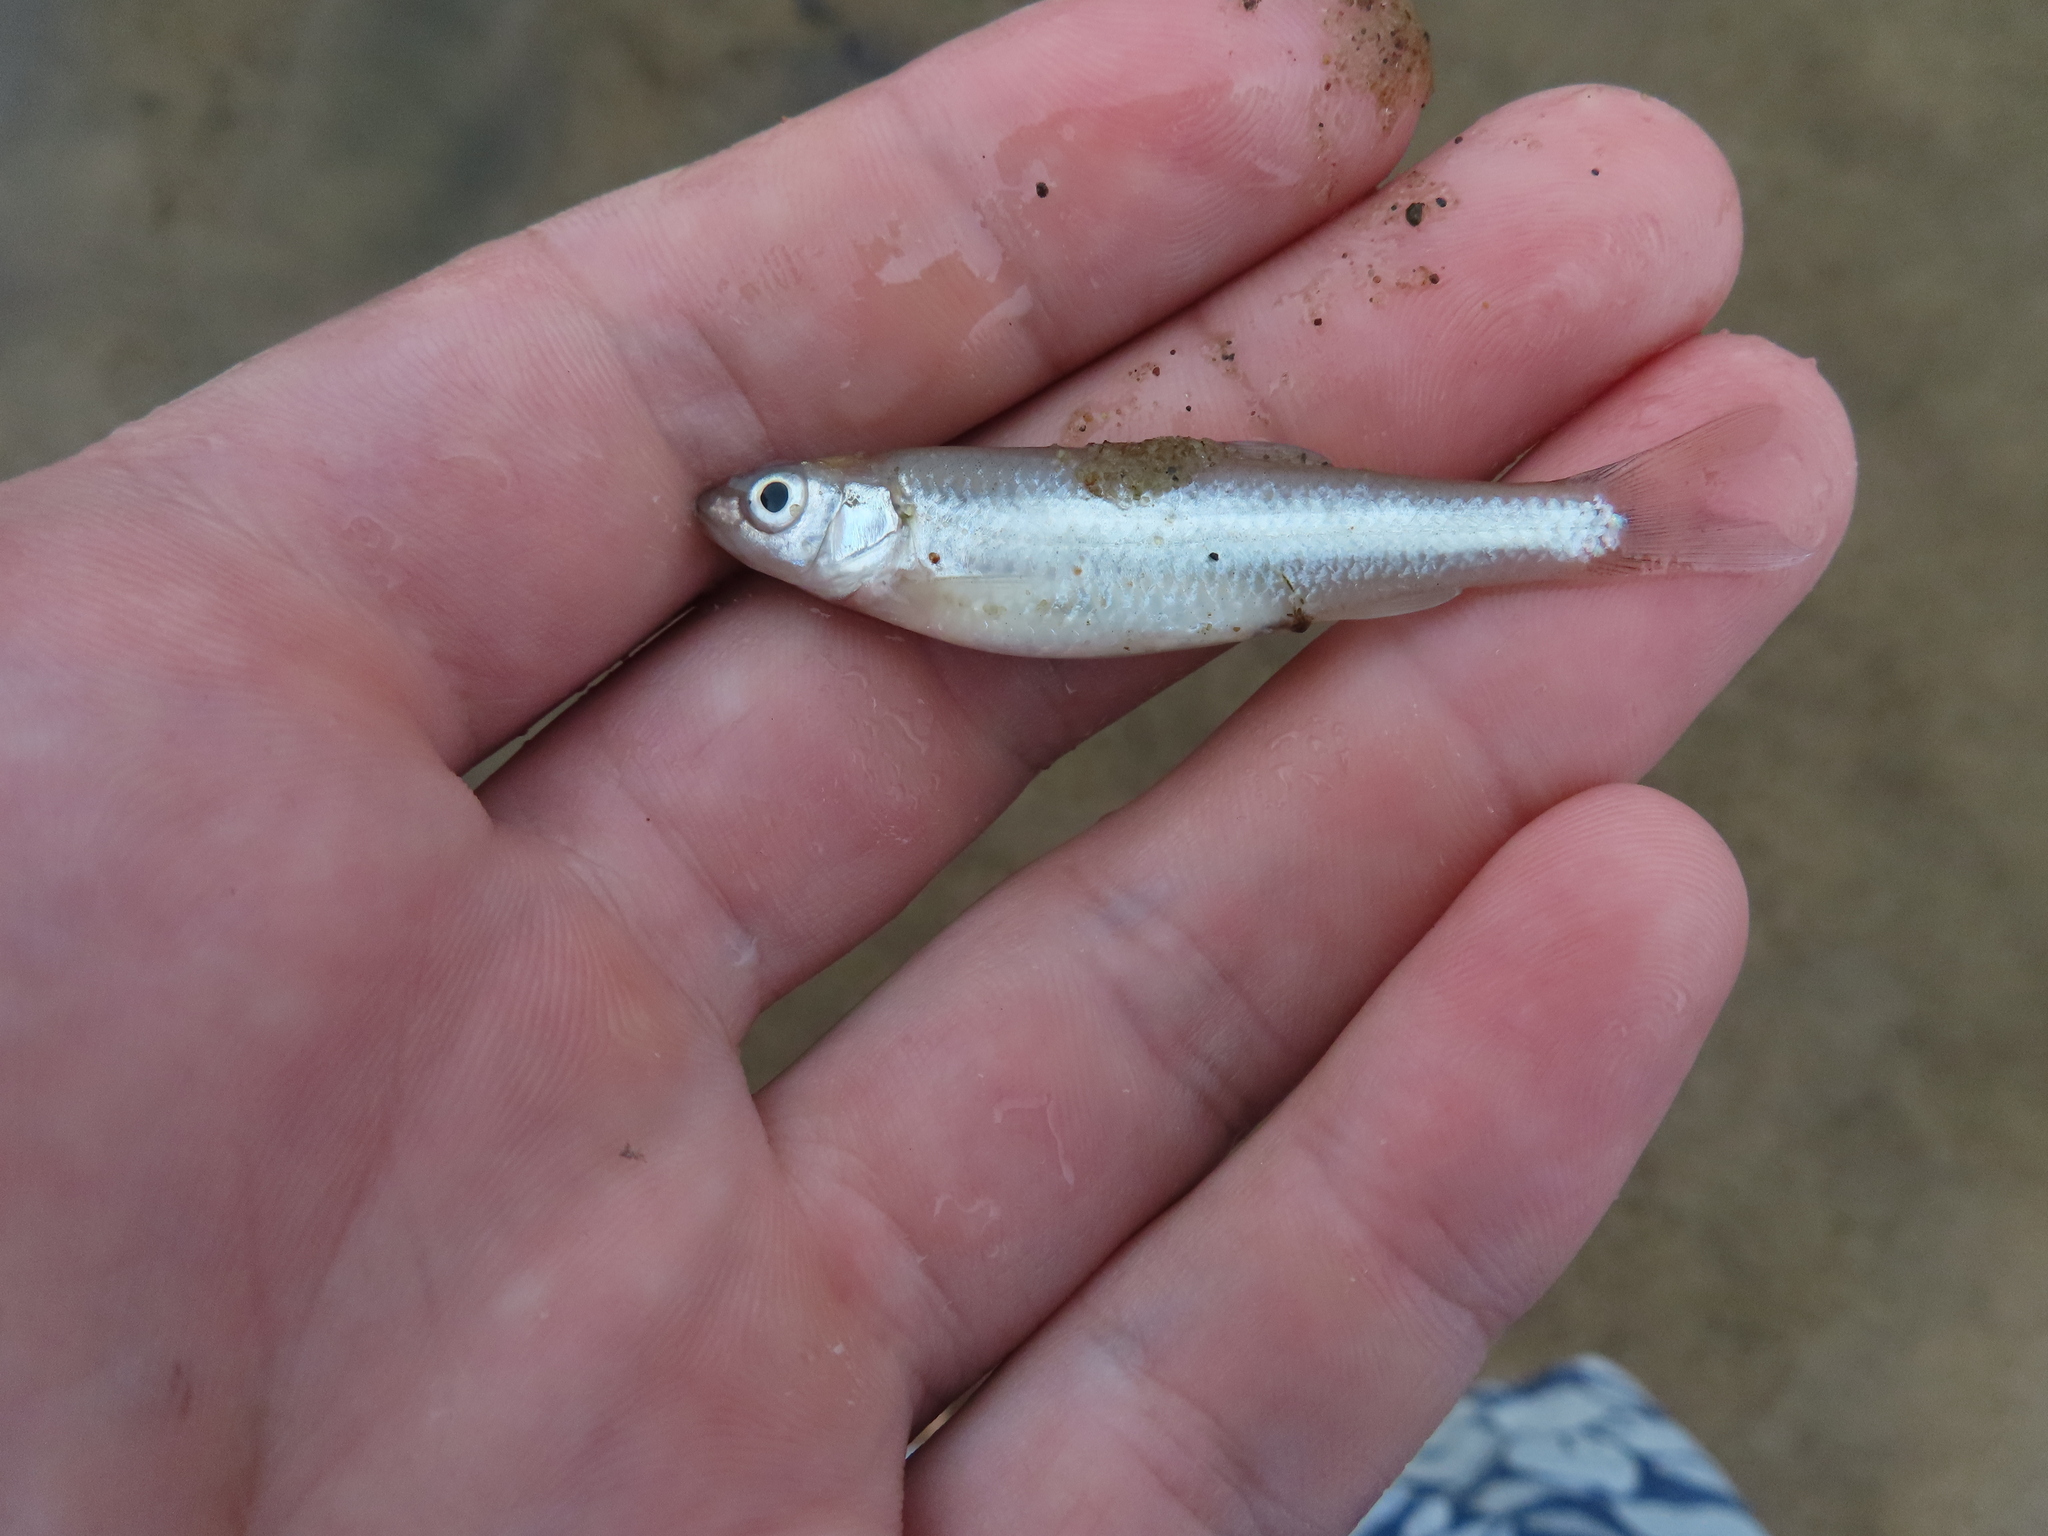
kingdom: Animalia
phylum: Chordata
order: Cypriniformes
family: Cyprinidae
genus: Notropis
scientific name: Notropis blennius
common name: River shiner
